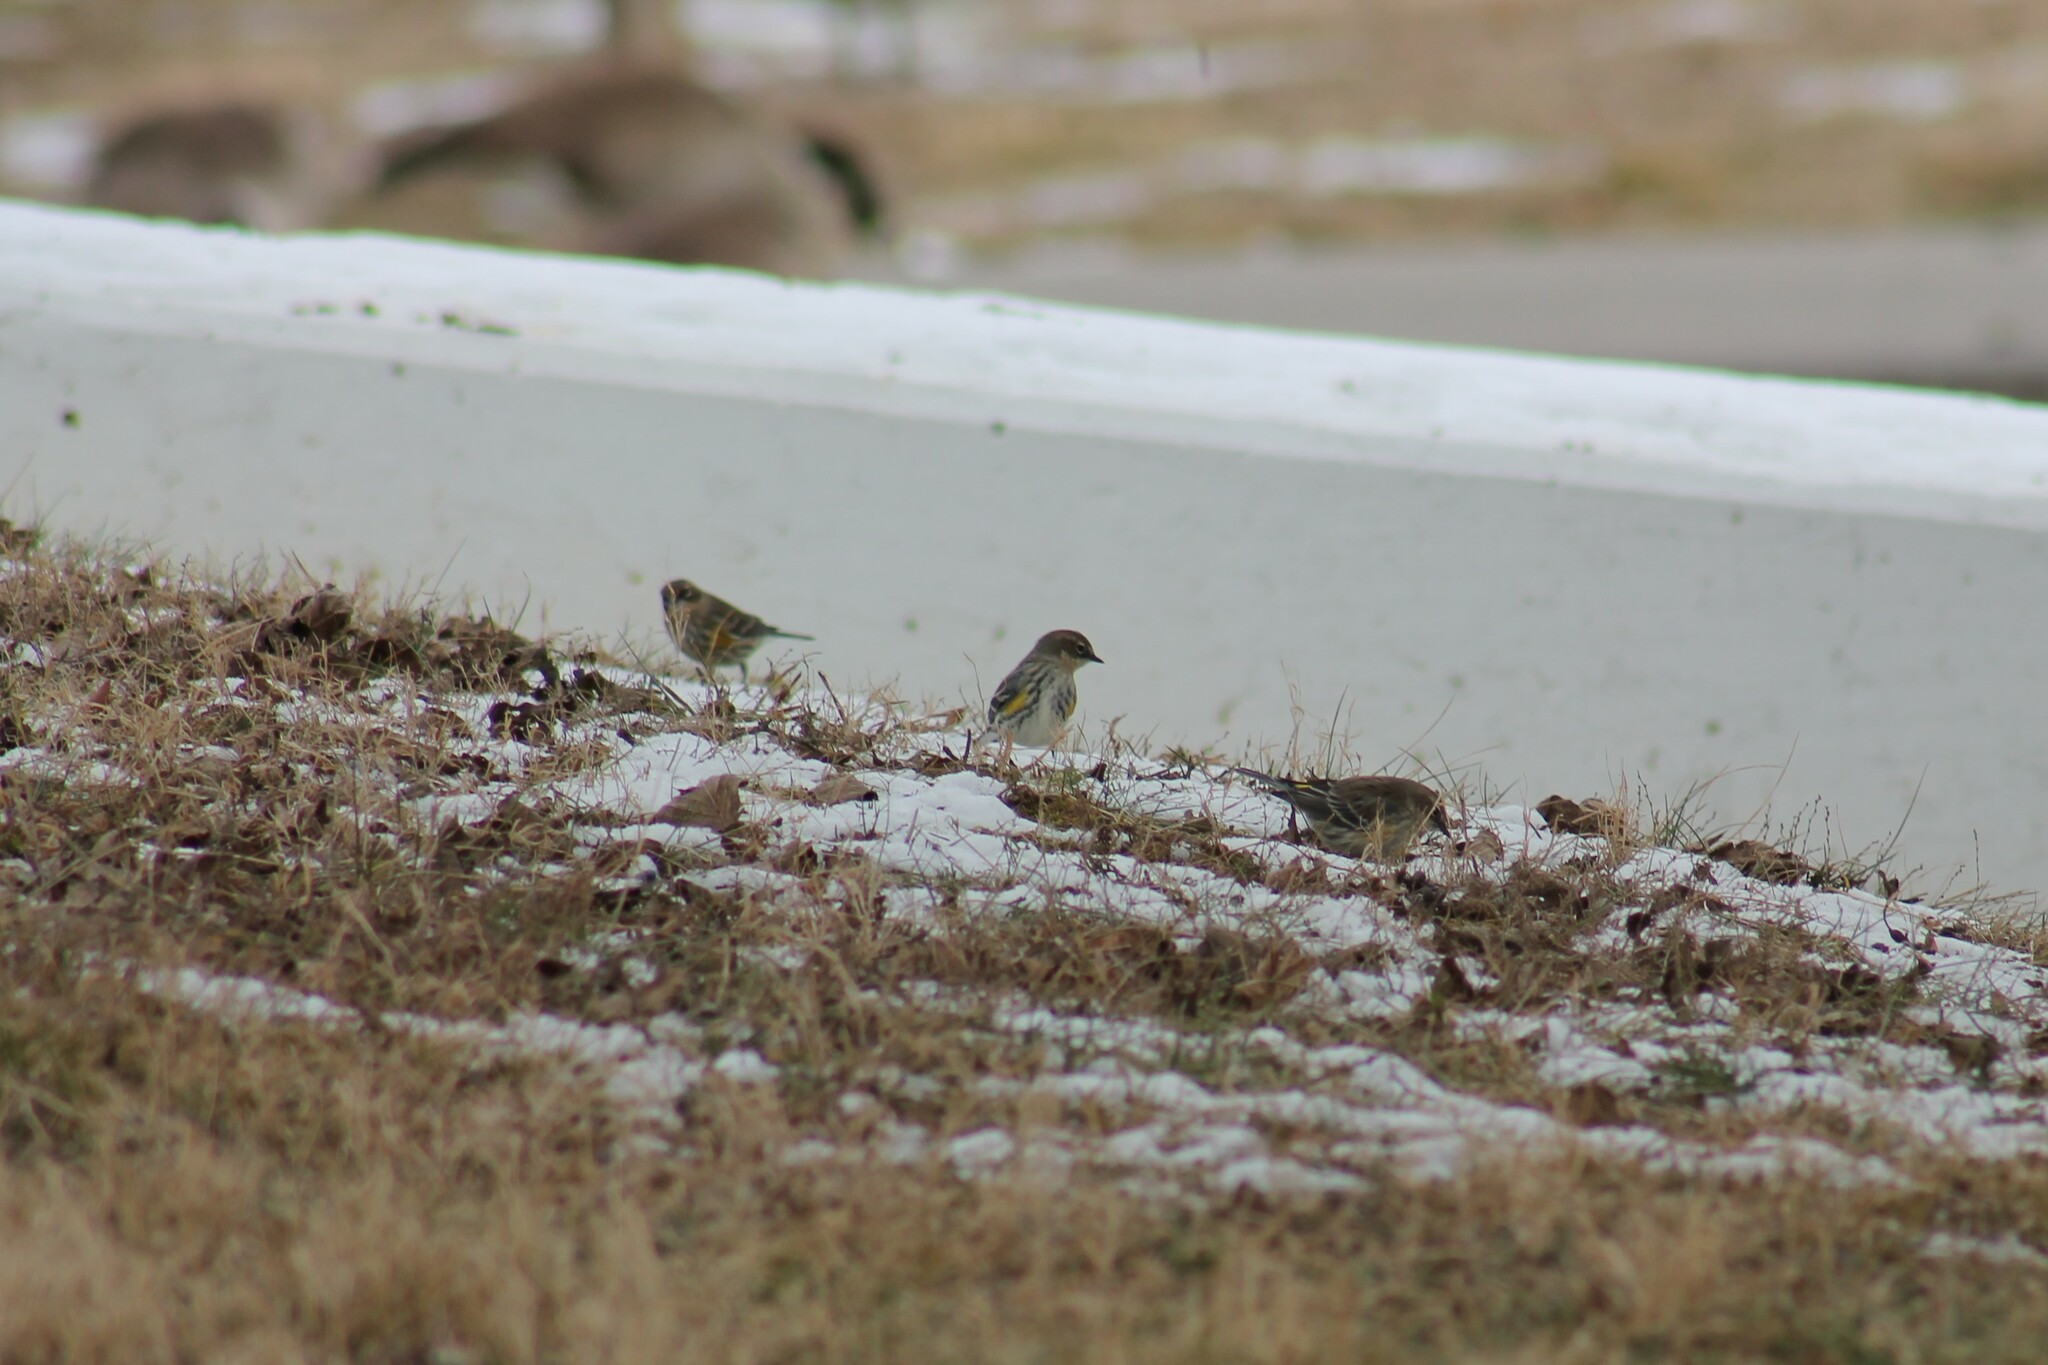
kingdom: Animalia
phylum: Chordata
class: Aves
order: Passeriformes
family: Parulidae
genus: Setophaga
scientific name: Setophaga coronata
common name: Myrtle warbler
